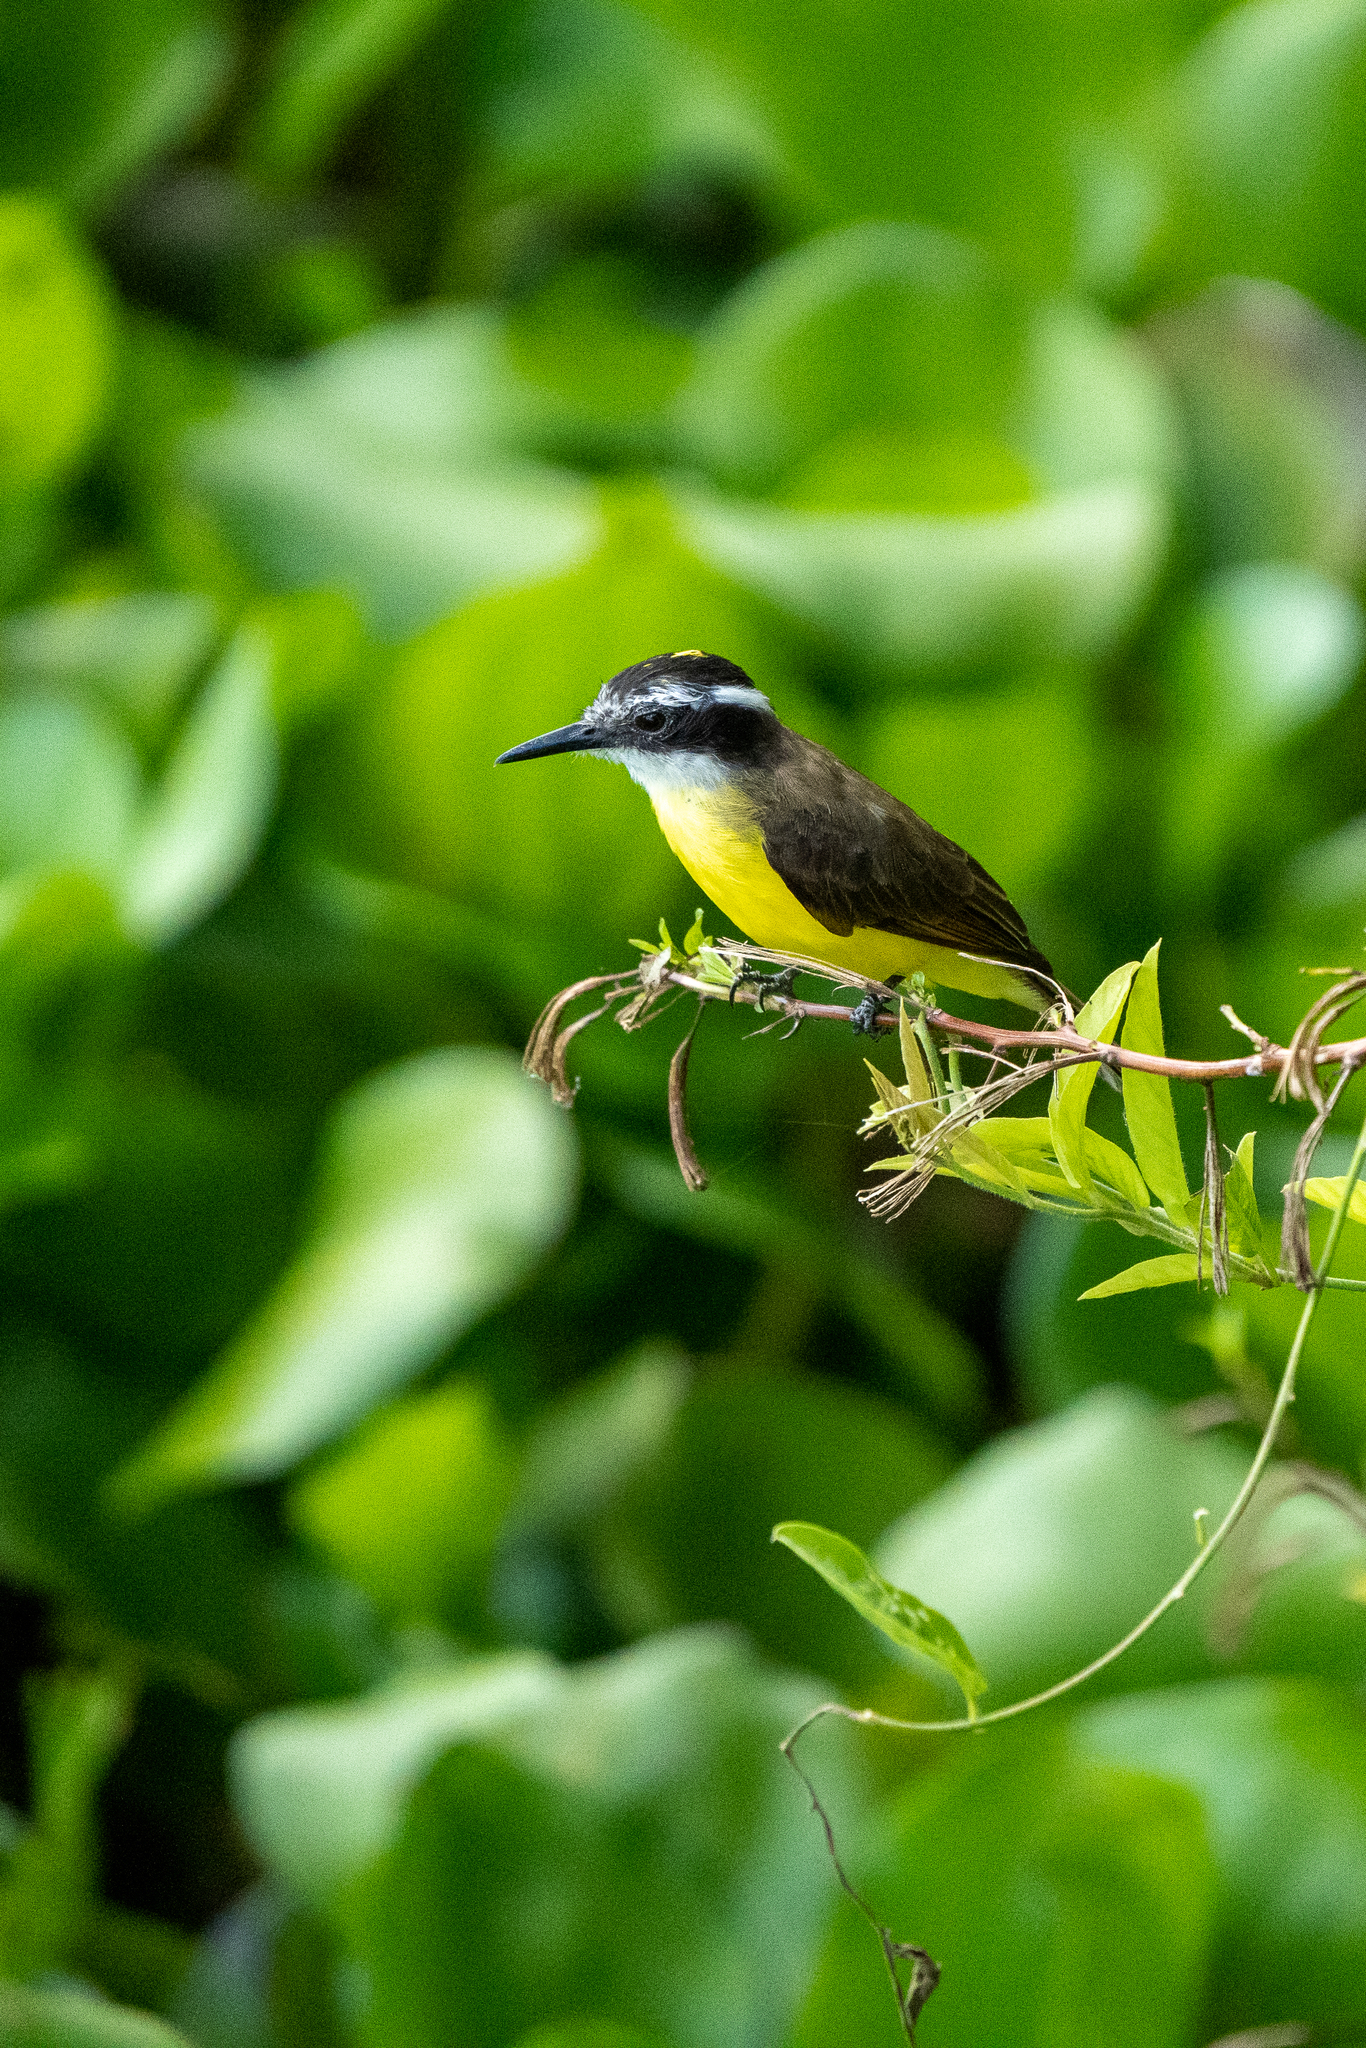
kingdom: Animalia
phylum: Chordata
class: Aves
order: Passeriformes
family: Tyrannidae
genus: Pitangus
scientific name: Pitangus lictor
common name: Lesser kiskadee
